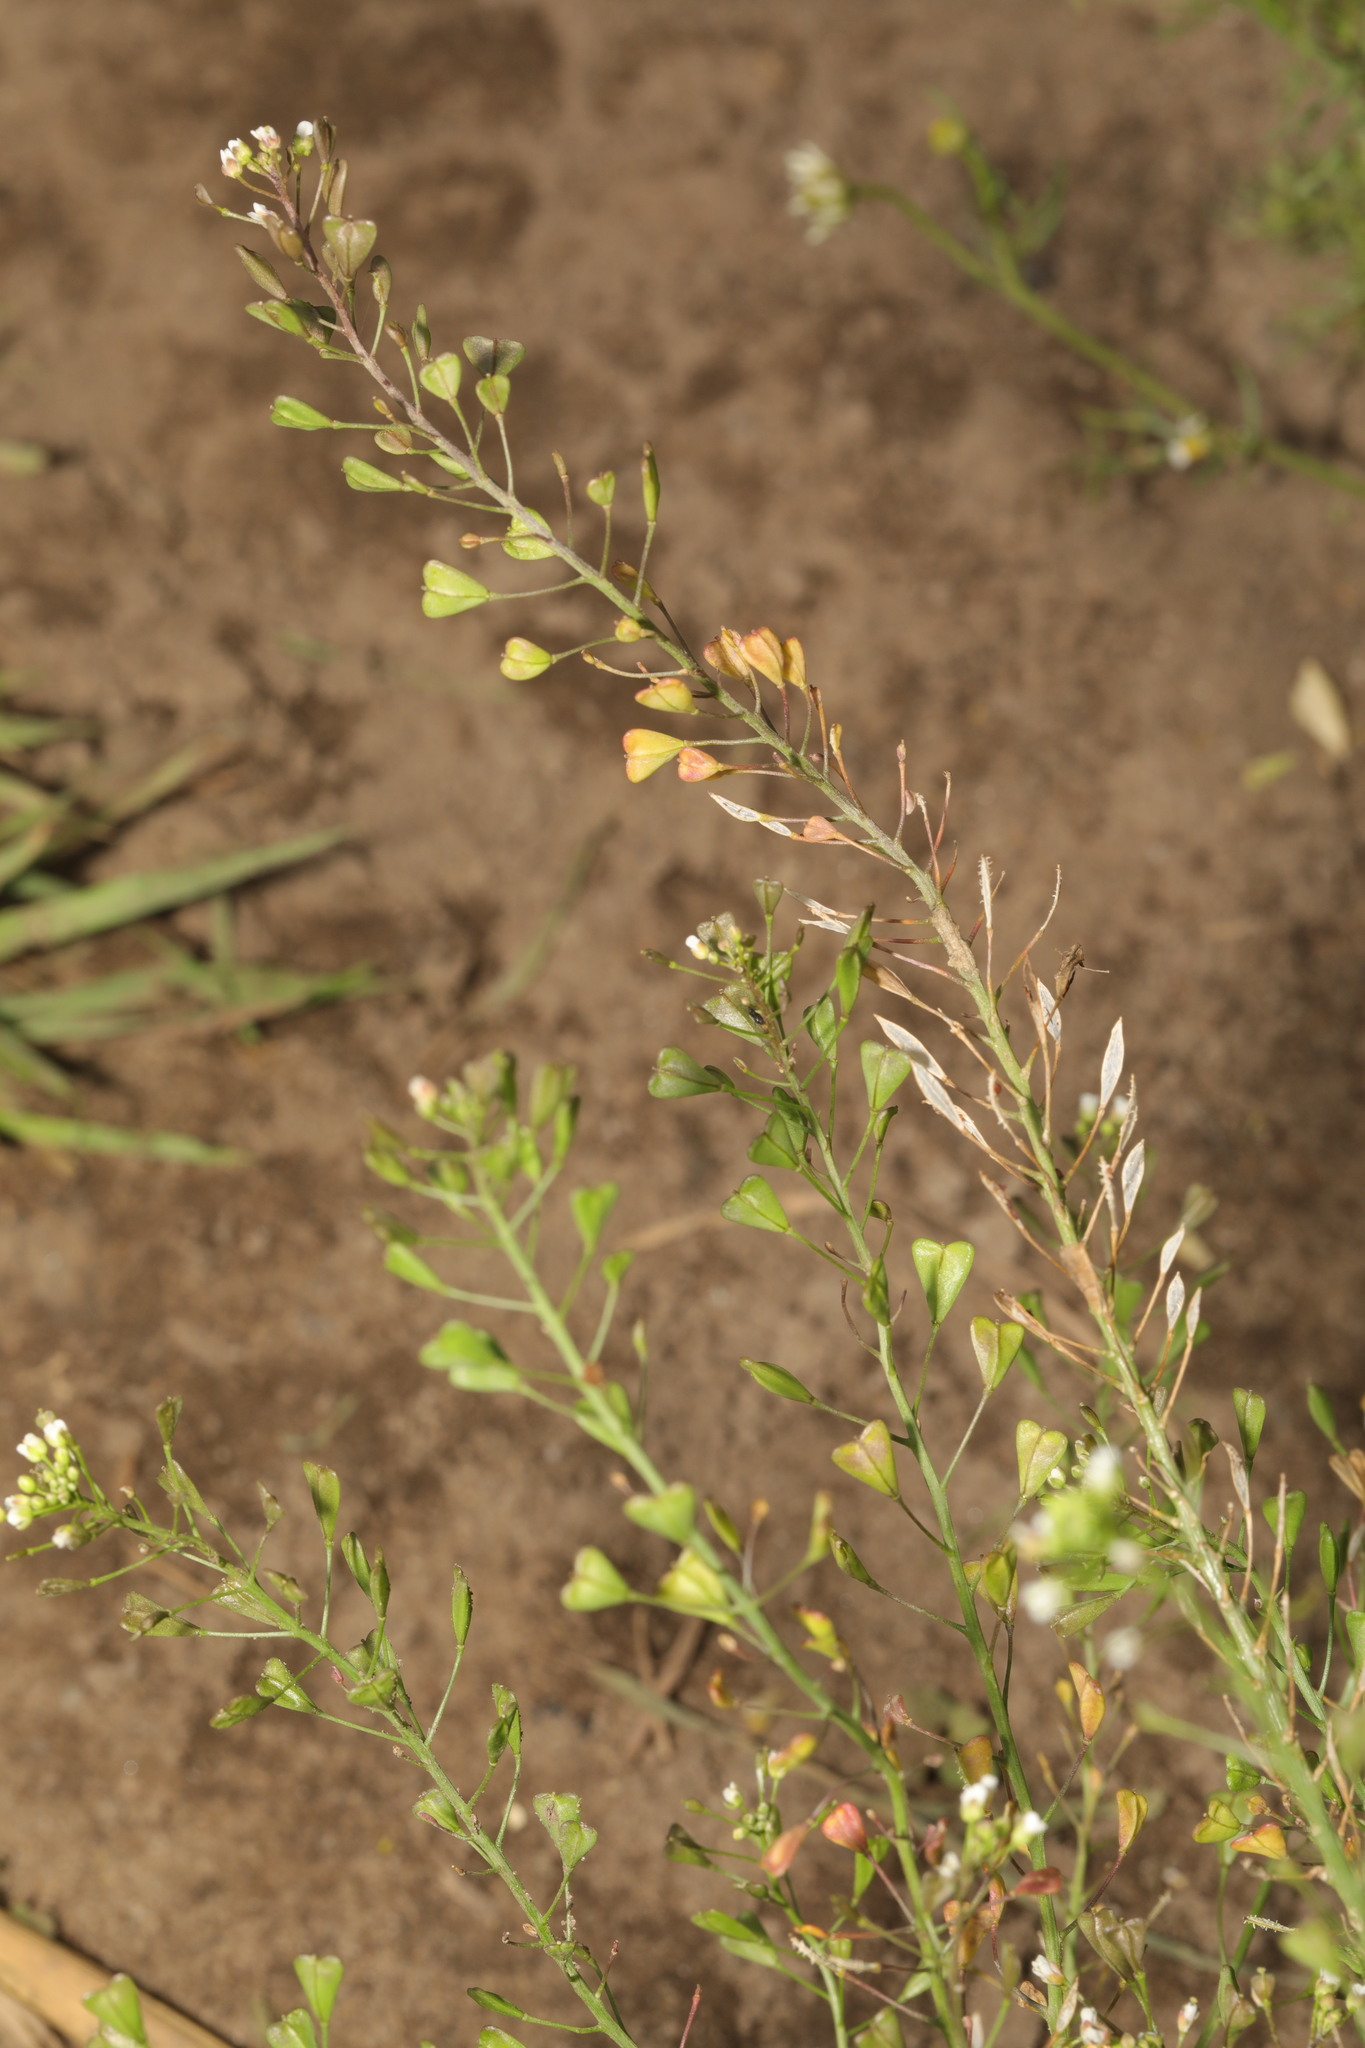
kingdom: Plantae
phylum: Tracheophyta
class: Magnoliopsida
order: Brassicales
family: Brassicaceae
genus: Capsella
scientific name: Capsella bursa-pastoris
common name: Shepherd's purse
